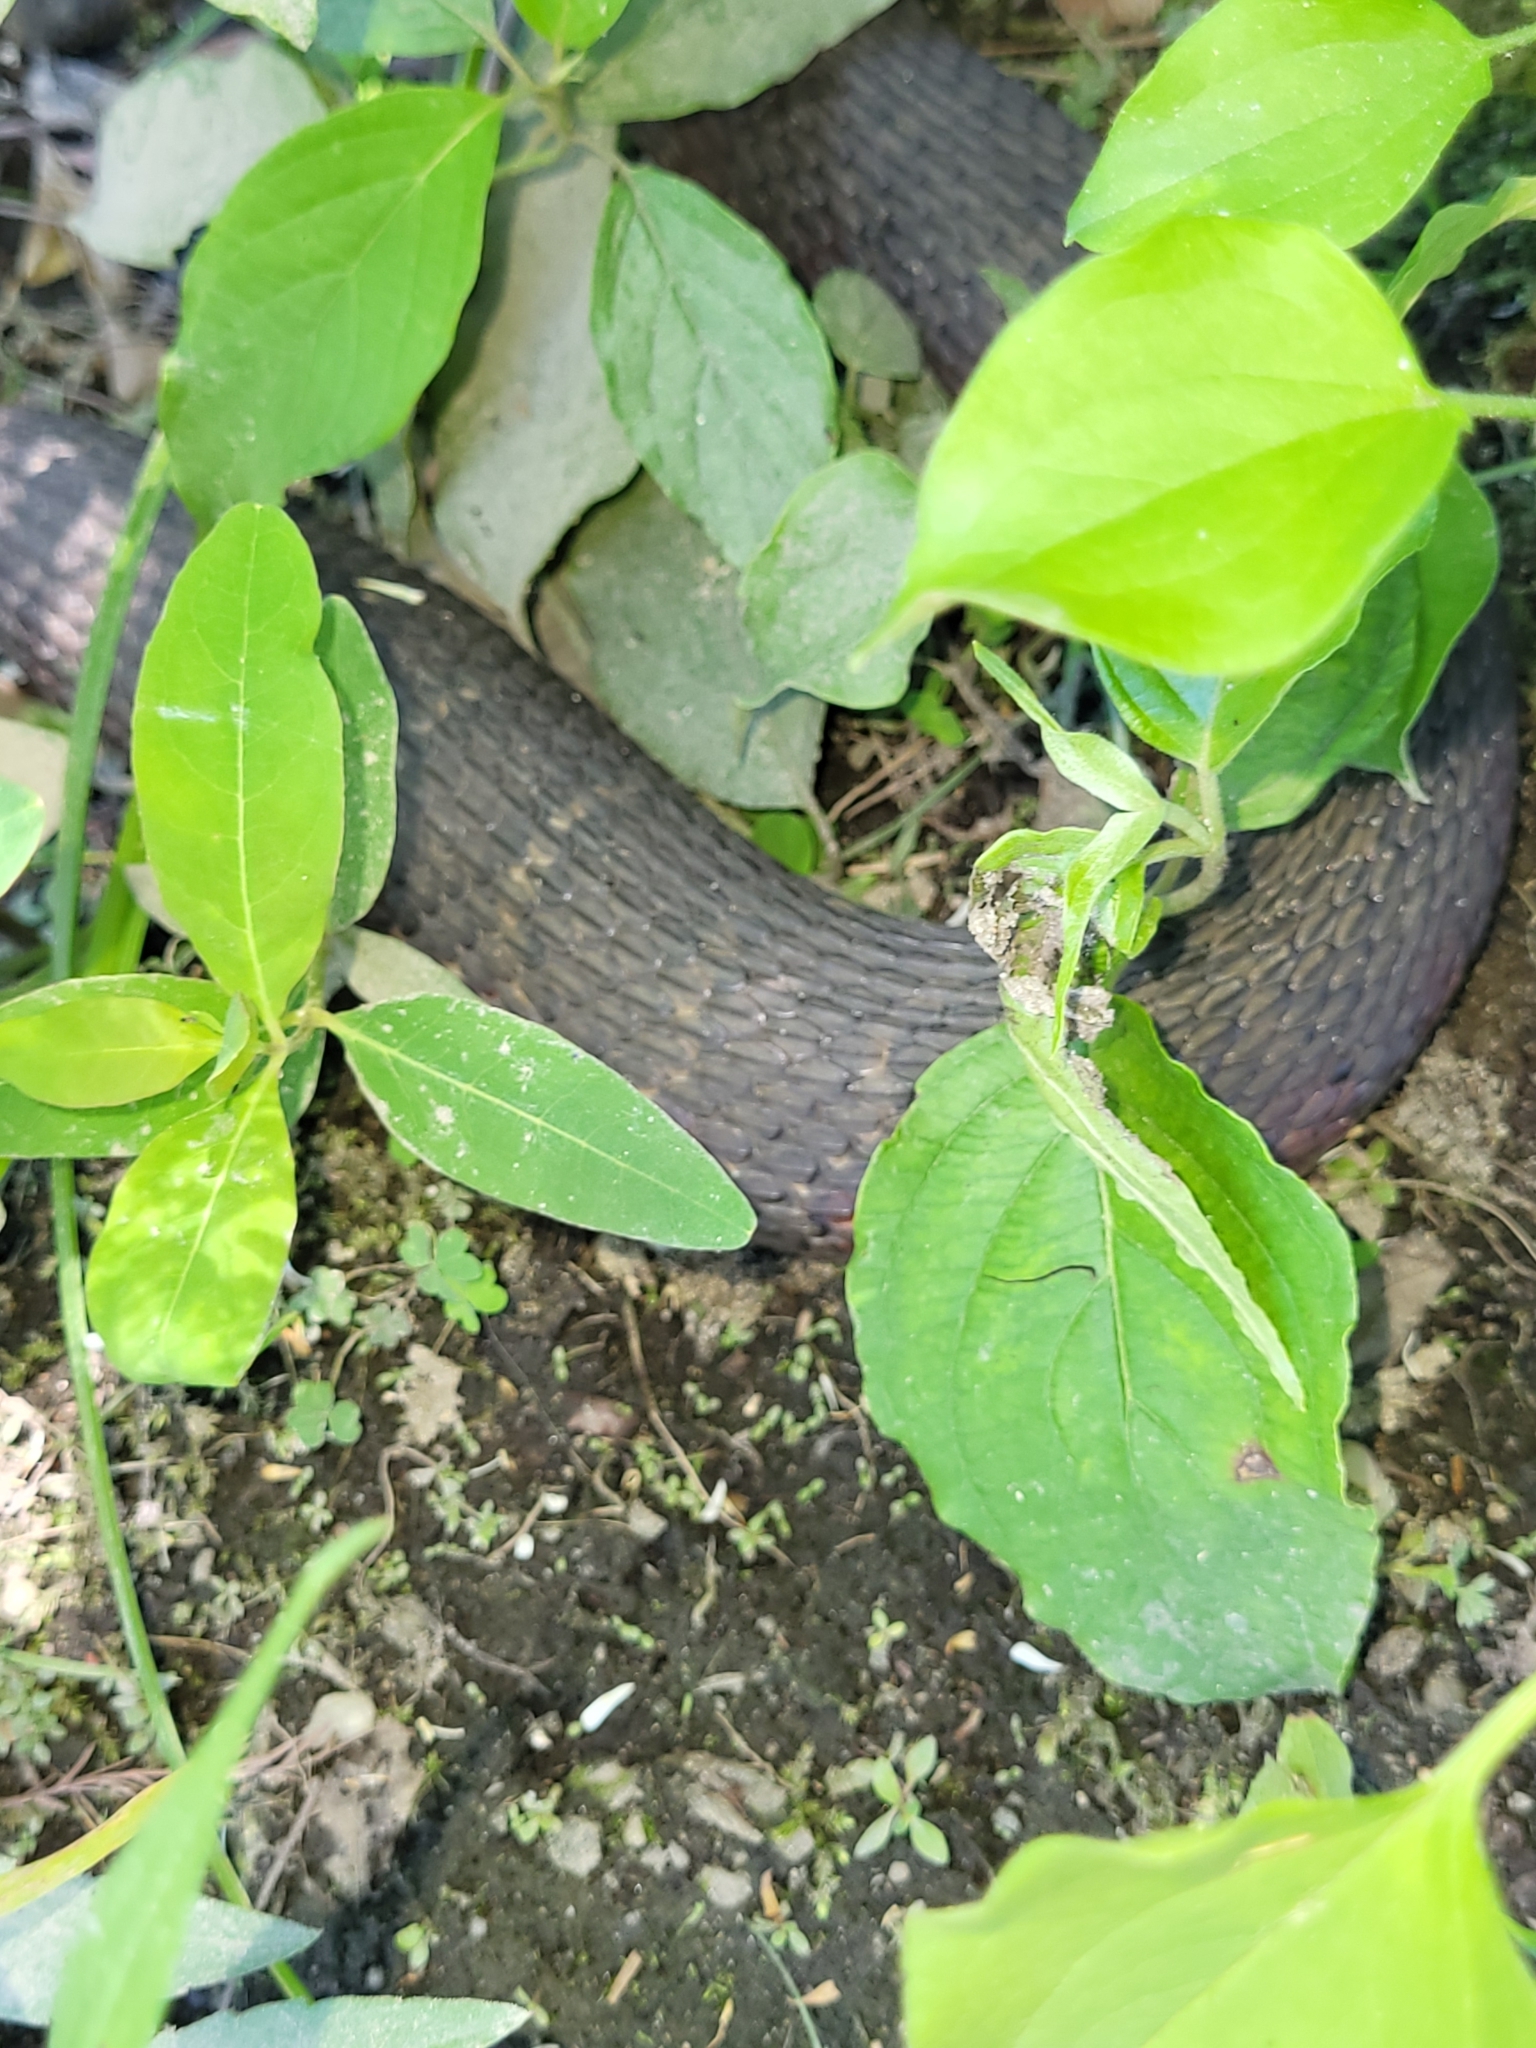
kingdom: Animalia
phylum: Chordata
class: Squamata
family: Colubridae
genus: Nerodia
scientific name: Nerodia sipedon
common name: Northern water snake
